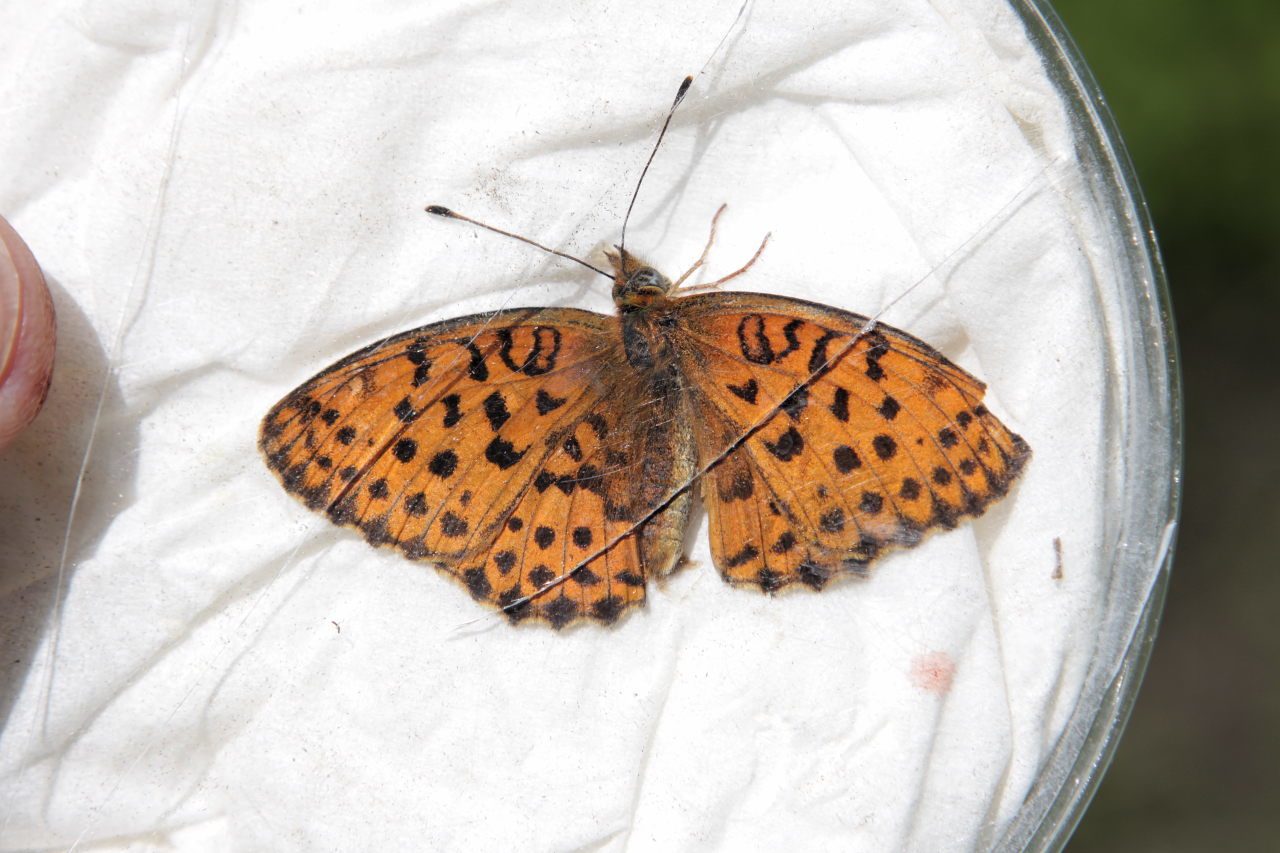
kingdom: Animalia
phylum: Arthropoda
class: Insecta
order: Lepidoptera
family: Nymphalidae
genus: Brenthis
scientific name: Brenthis daphne
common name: Marbled fritillary
